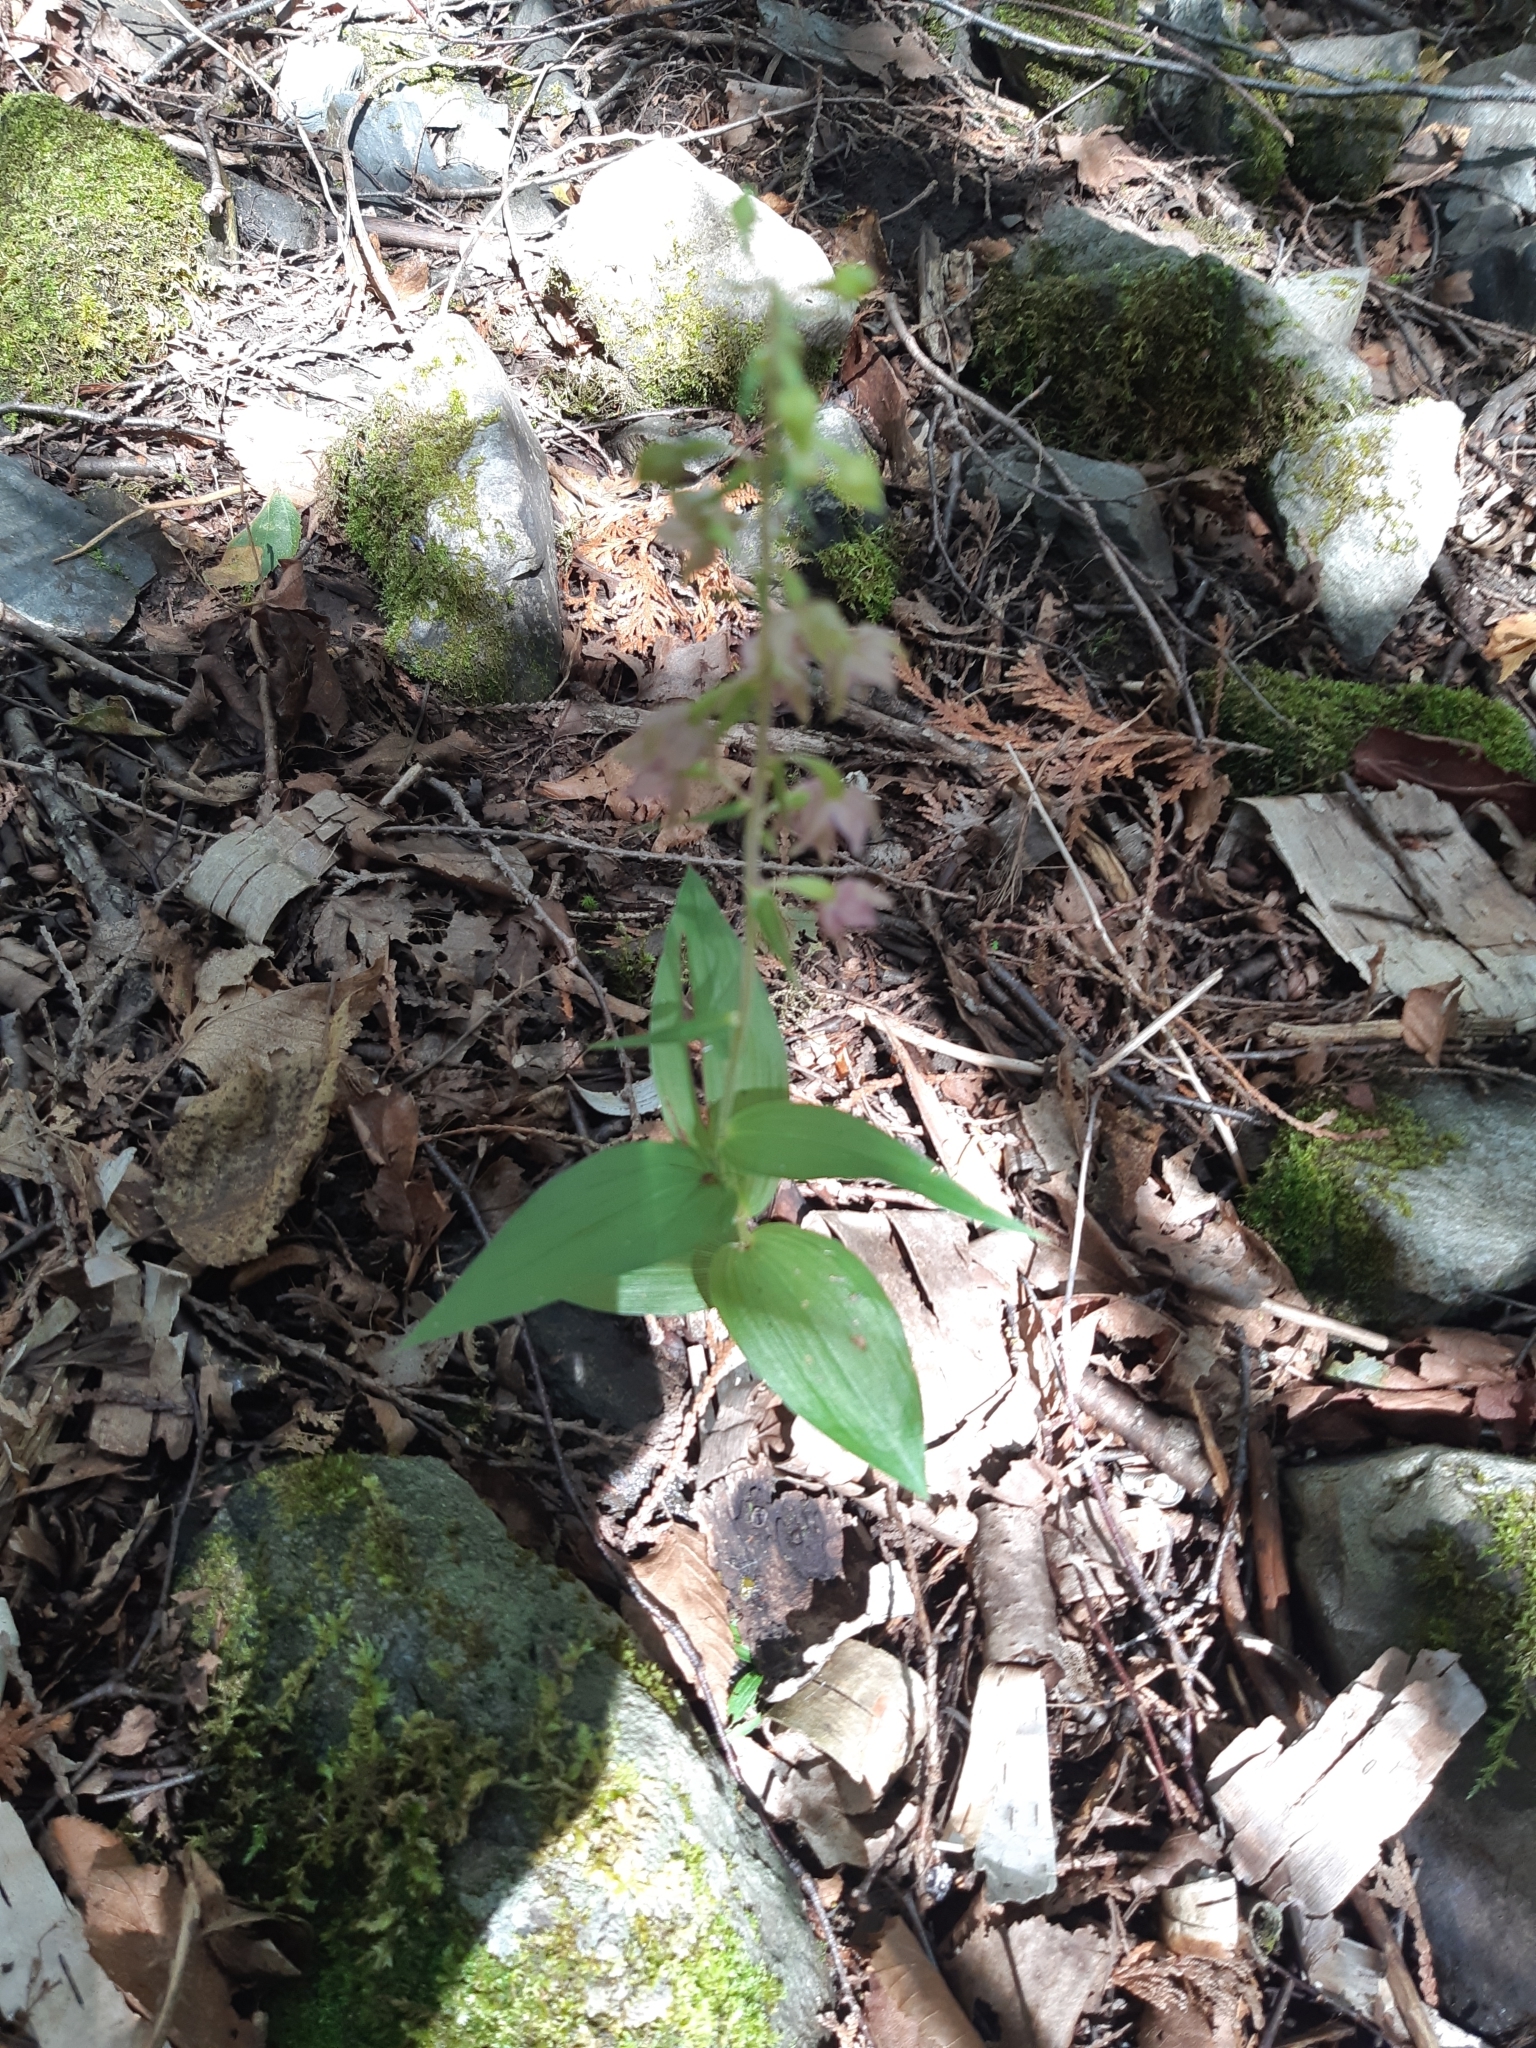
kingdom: Plantae
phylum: Tracheophyta
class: Liliopsida
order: Asparagales
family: Orchidaceae
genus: Epipactis
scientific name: Epipactis helleborine
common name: Broad-leaved helleborine
